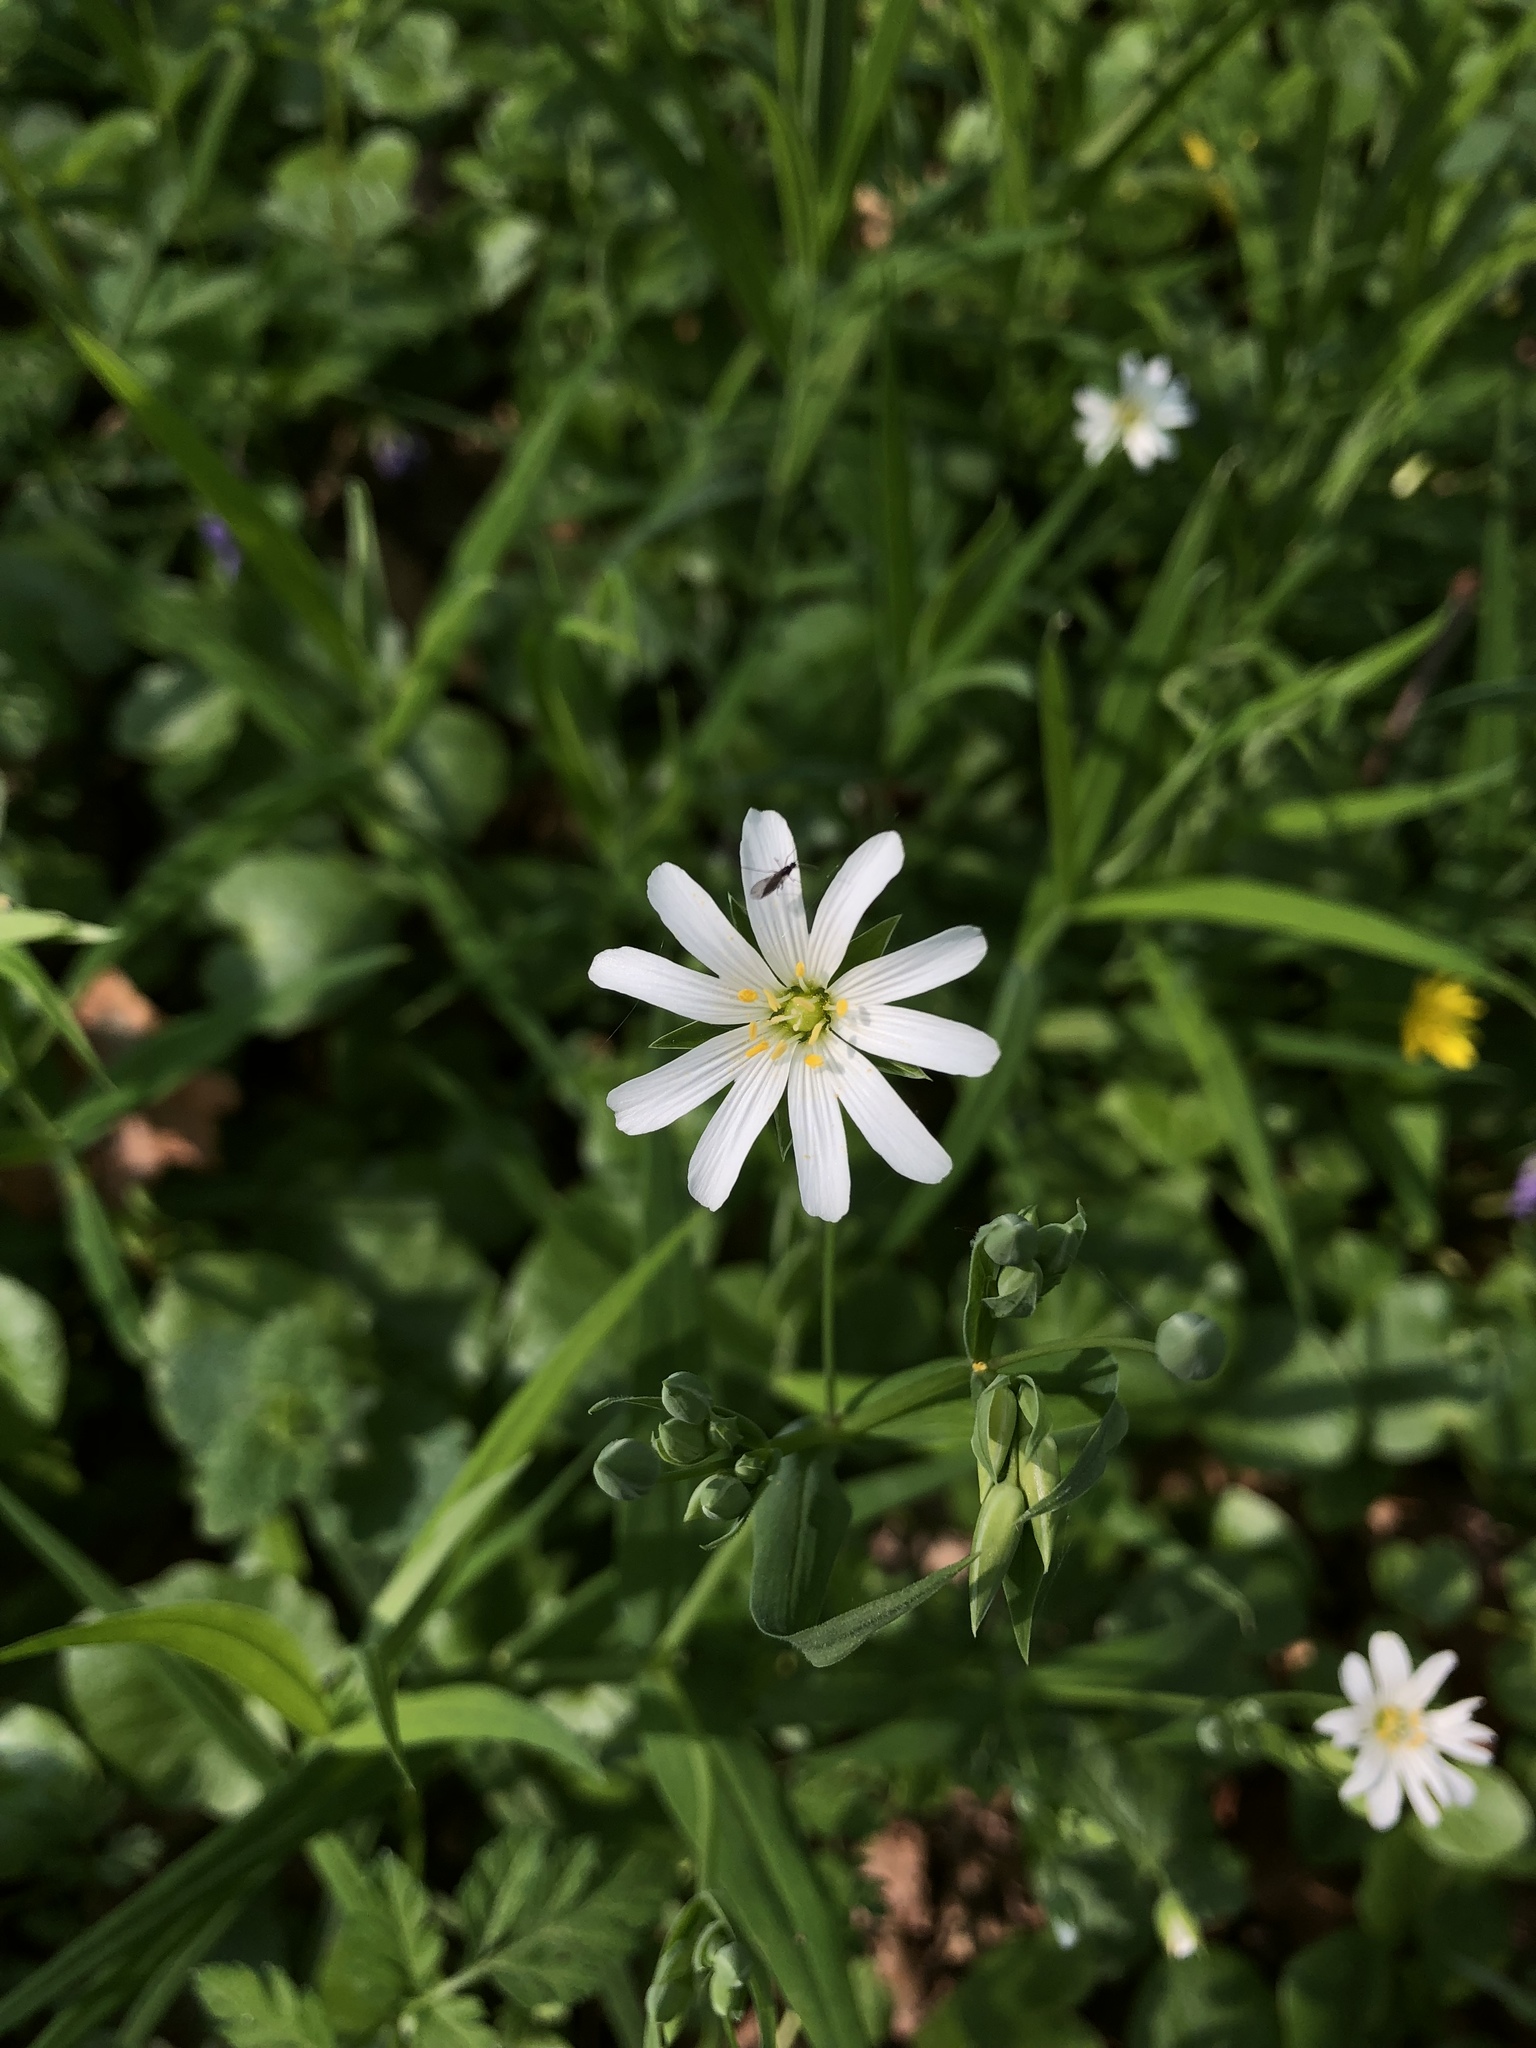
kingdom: Plantae
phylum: Tracheophyta
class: Magnoliopsida
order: Caryophyllales
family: Caryophyllaceae
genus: Rabelera
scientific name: Rabelera holostea
